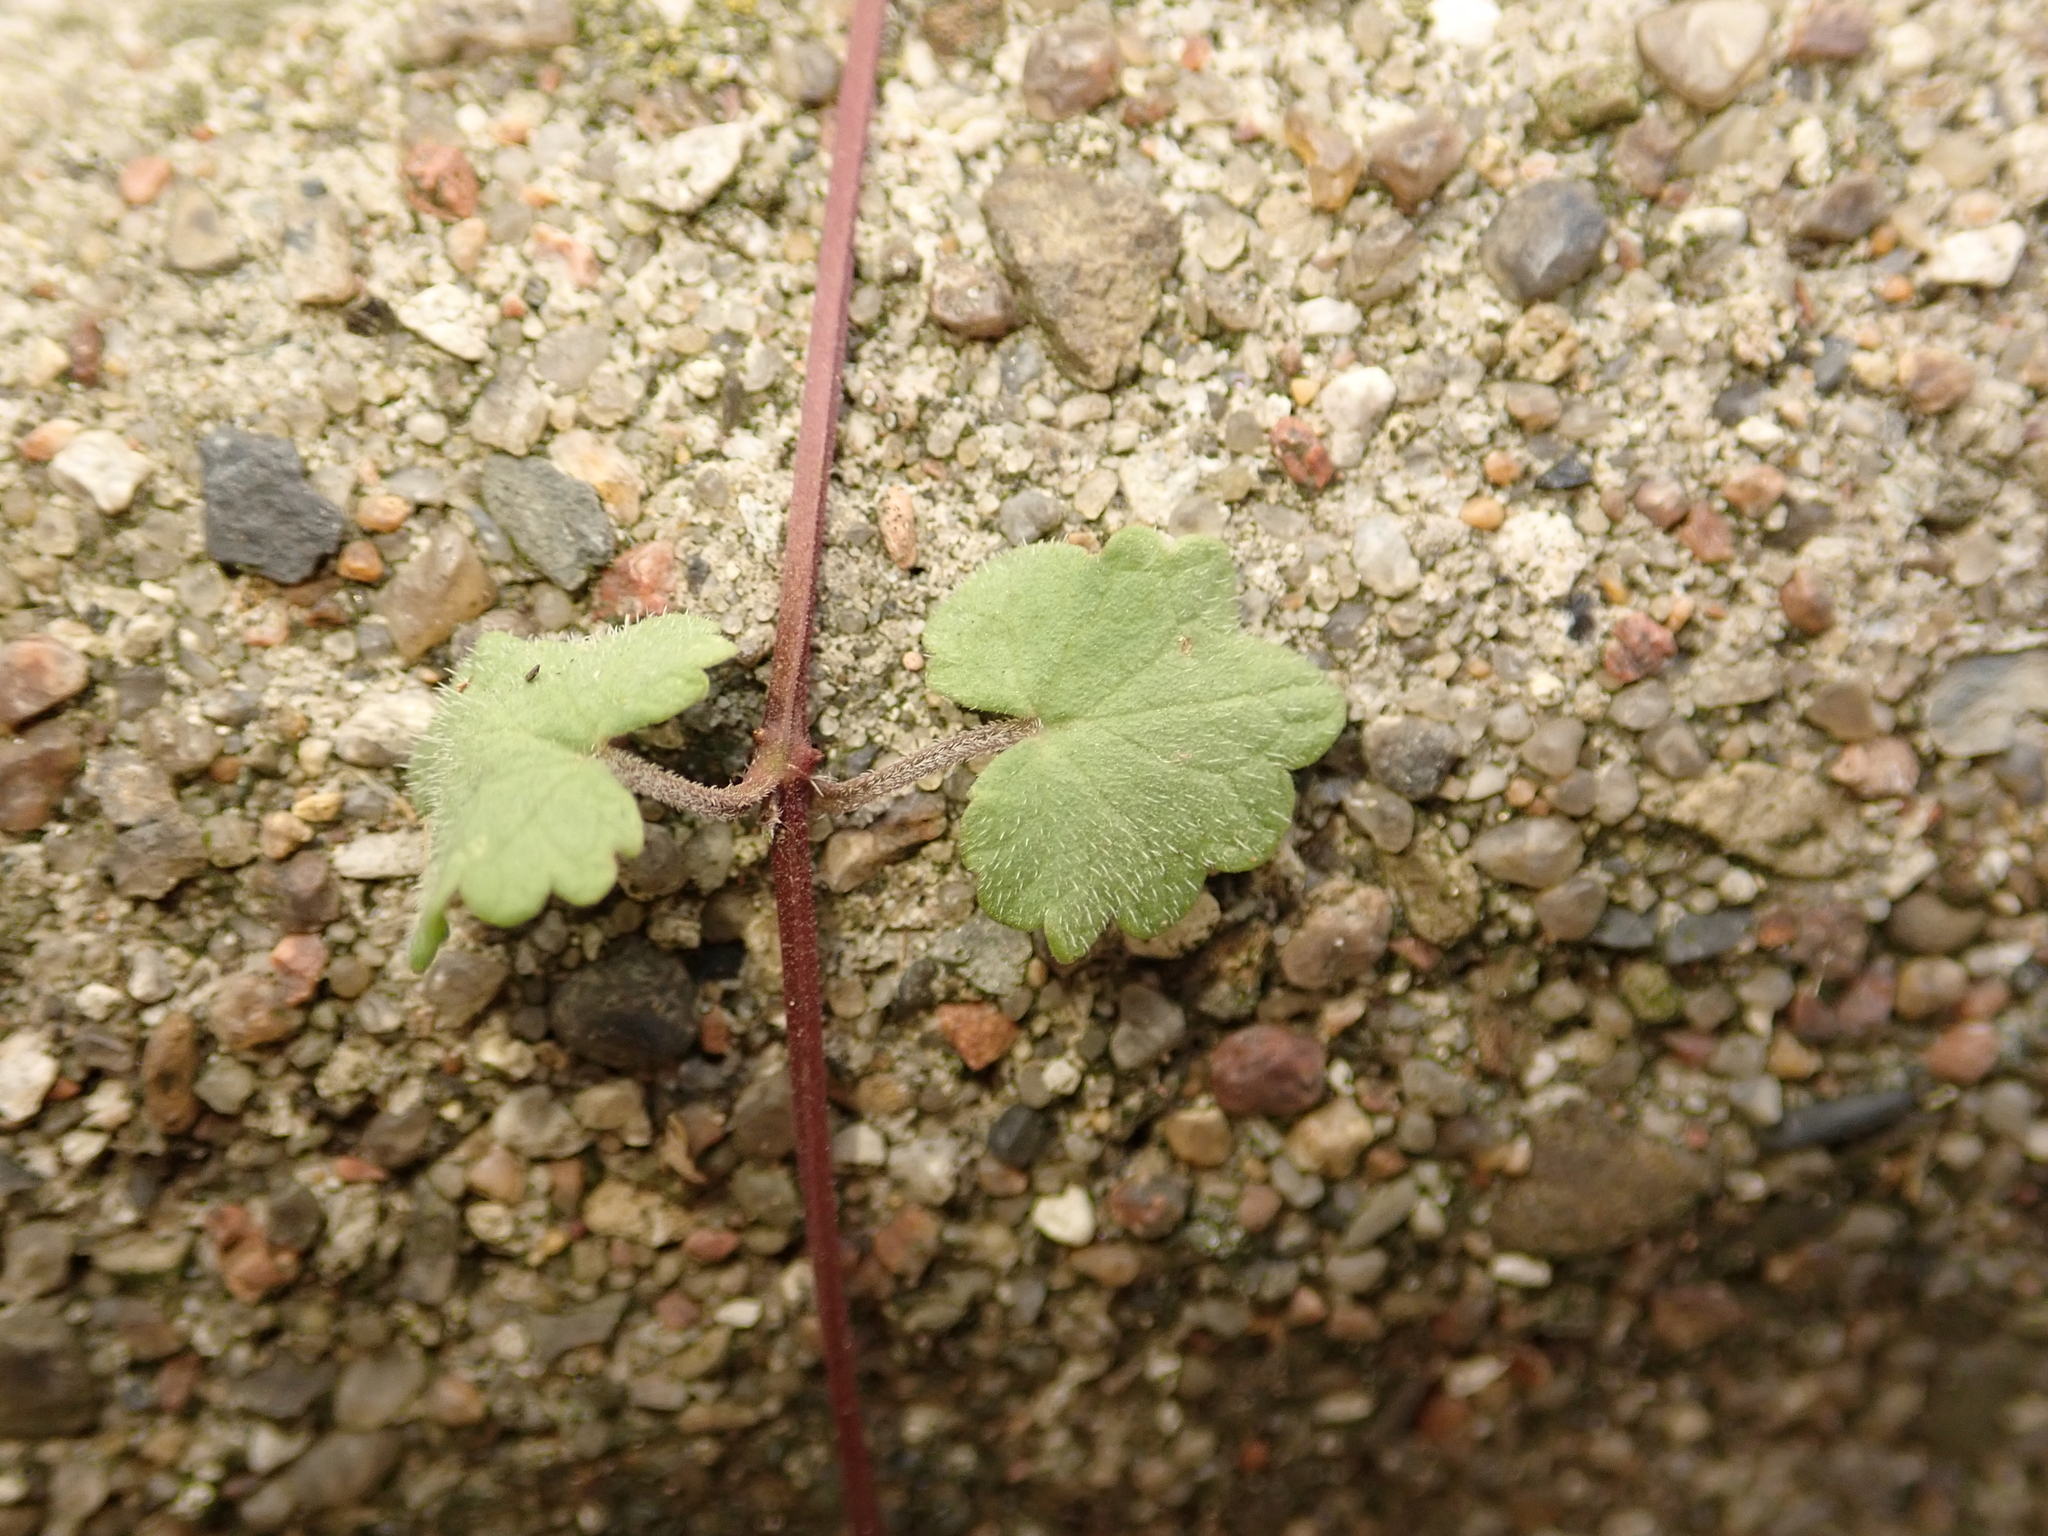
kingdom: Plantae
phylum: Tracheophyta
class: Magnoliopsida
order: Lamiales
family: Lamiaceae
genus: Glechoma
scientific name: Glechoma hederacea
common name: Ground ivy
